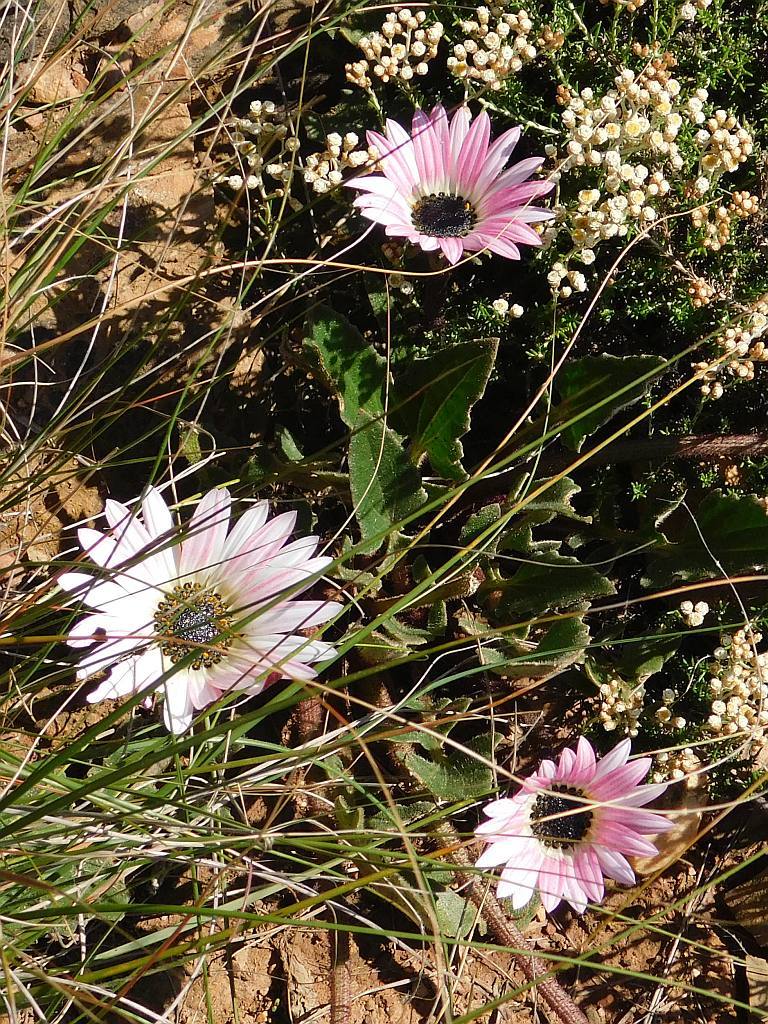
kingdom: Plantae
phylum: Tracheophyta
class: Magnoliopsida
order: Asterales
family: Asteraceae
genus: Arctotis
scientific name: Arctotis acaulis
